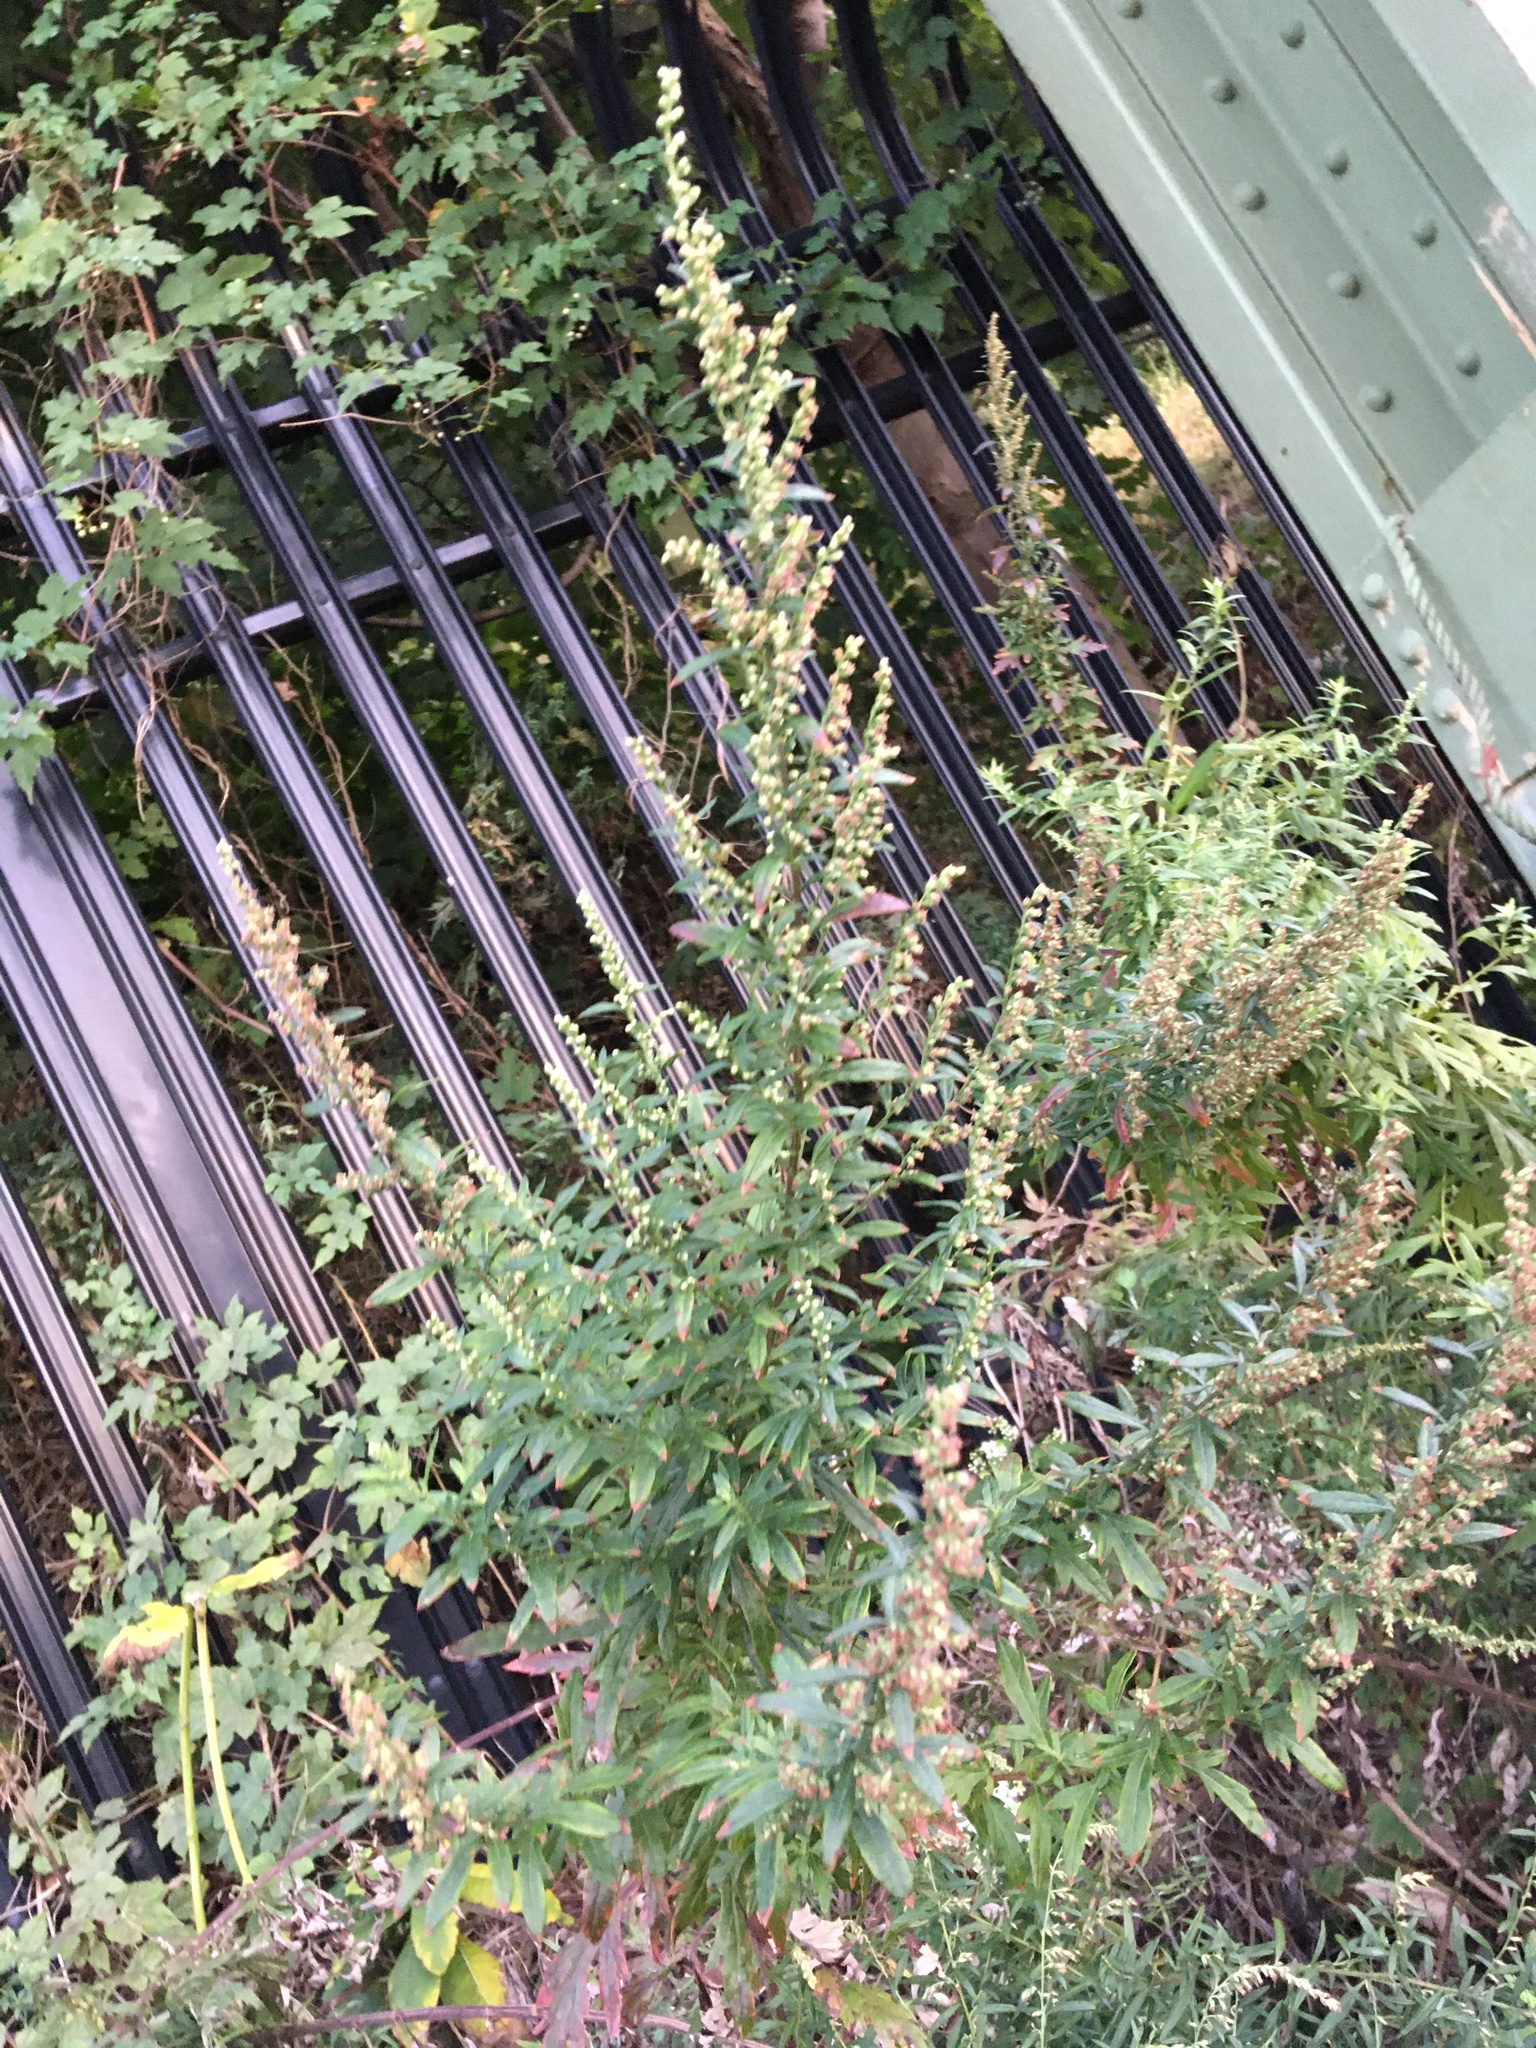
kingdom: Plantae
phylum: Tracheophyta
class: Magnoliopsida
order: Asterales
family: Asteraceae
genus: Artemisia
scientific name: Artemisia vulgaris
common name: Mugwort
